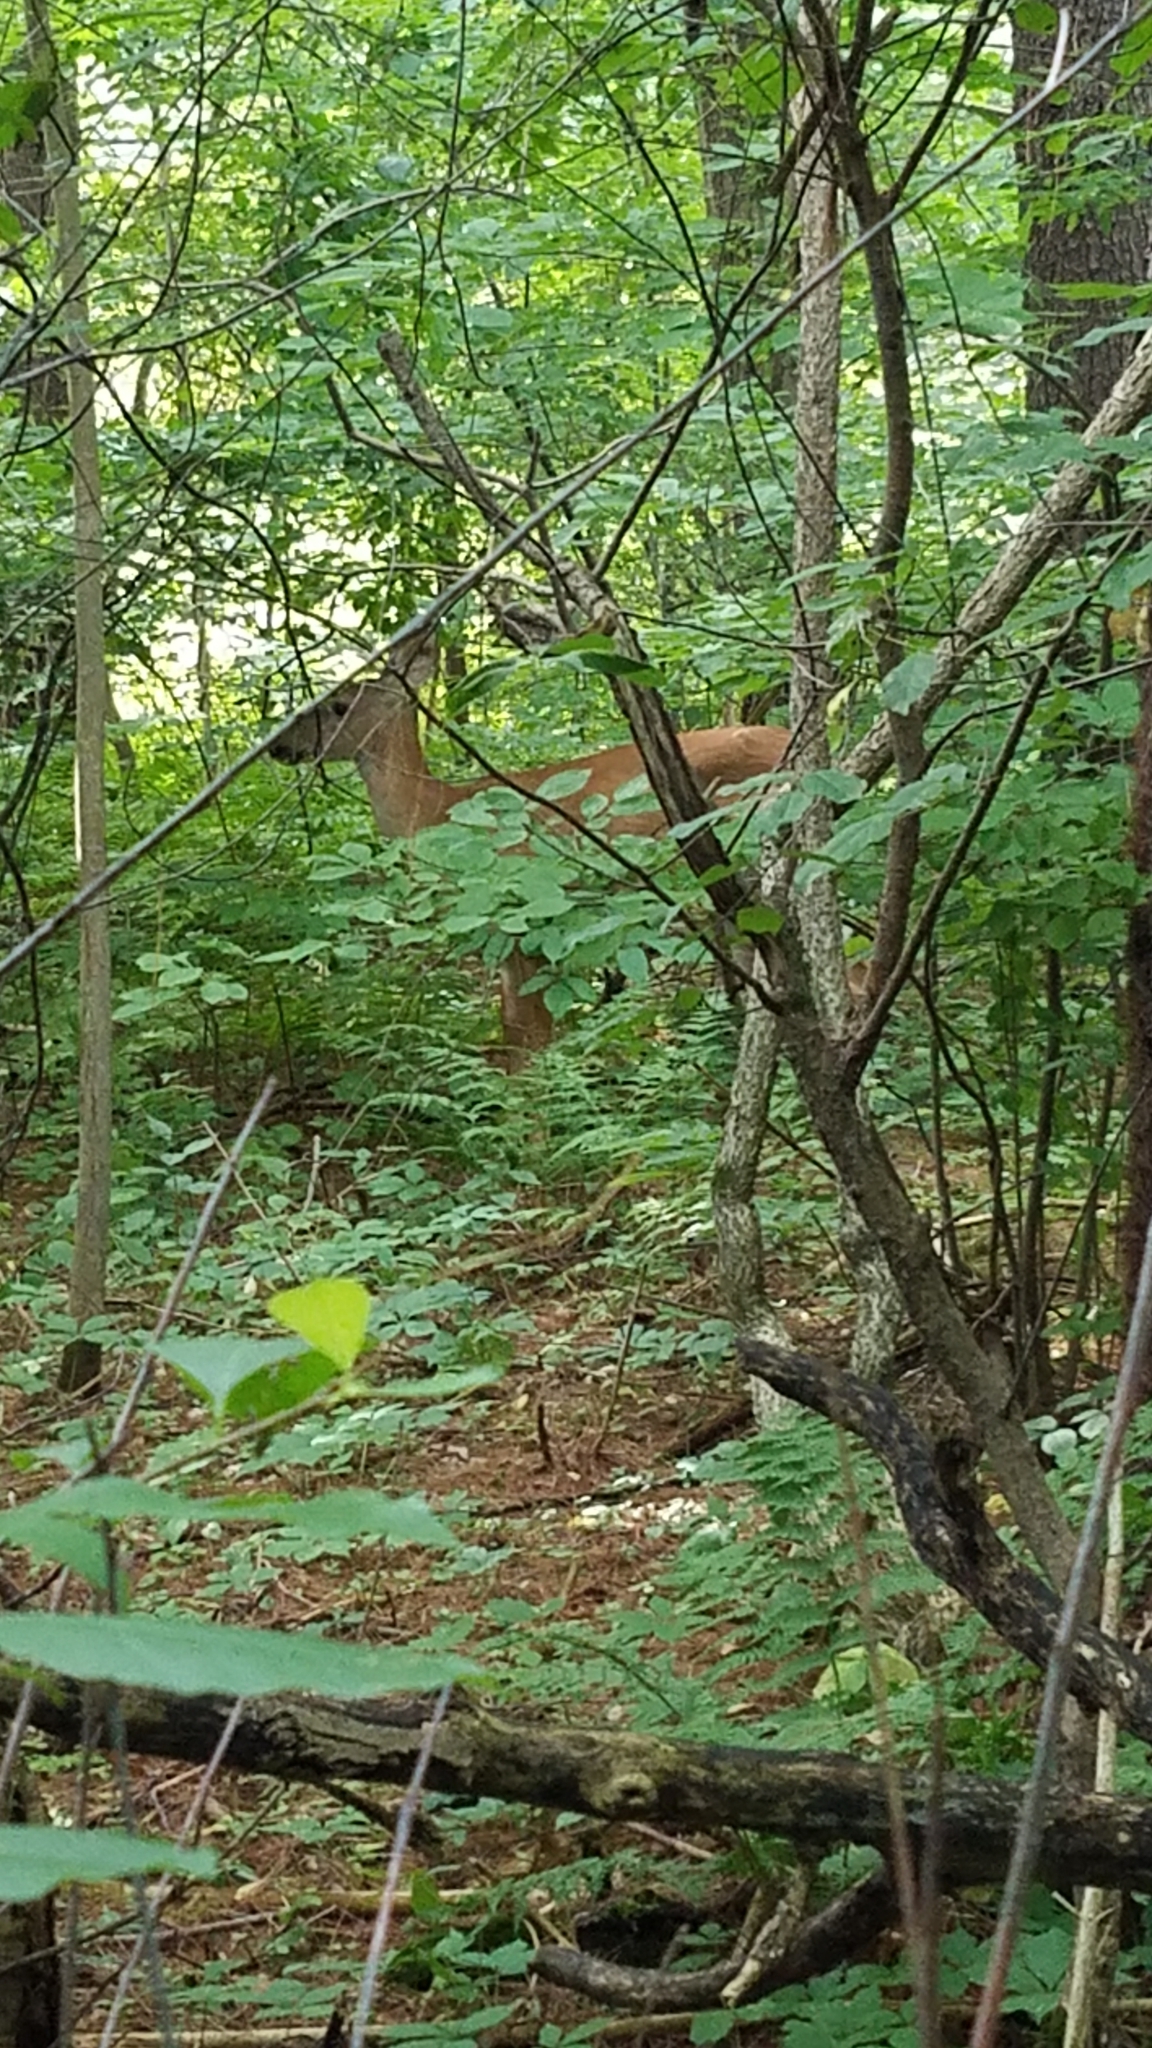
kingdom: Animalia
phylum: Chordata
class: Mammalia
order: Artiodactyla
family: Cervidae
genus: Odocoileus
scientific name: Odocoileus virginianus
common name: White-tailed deer
